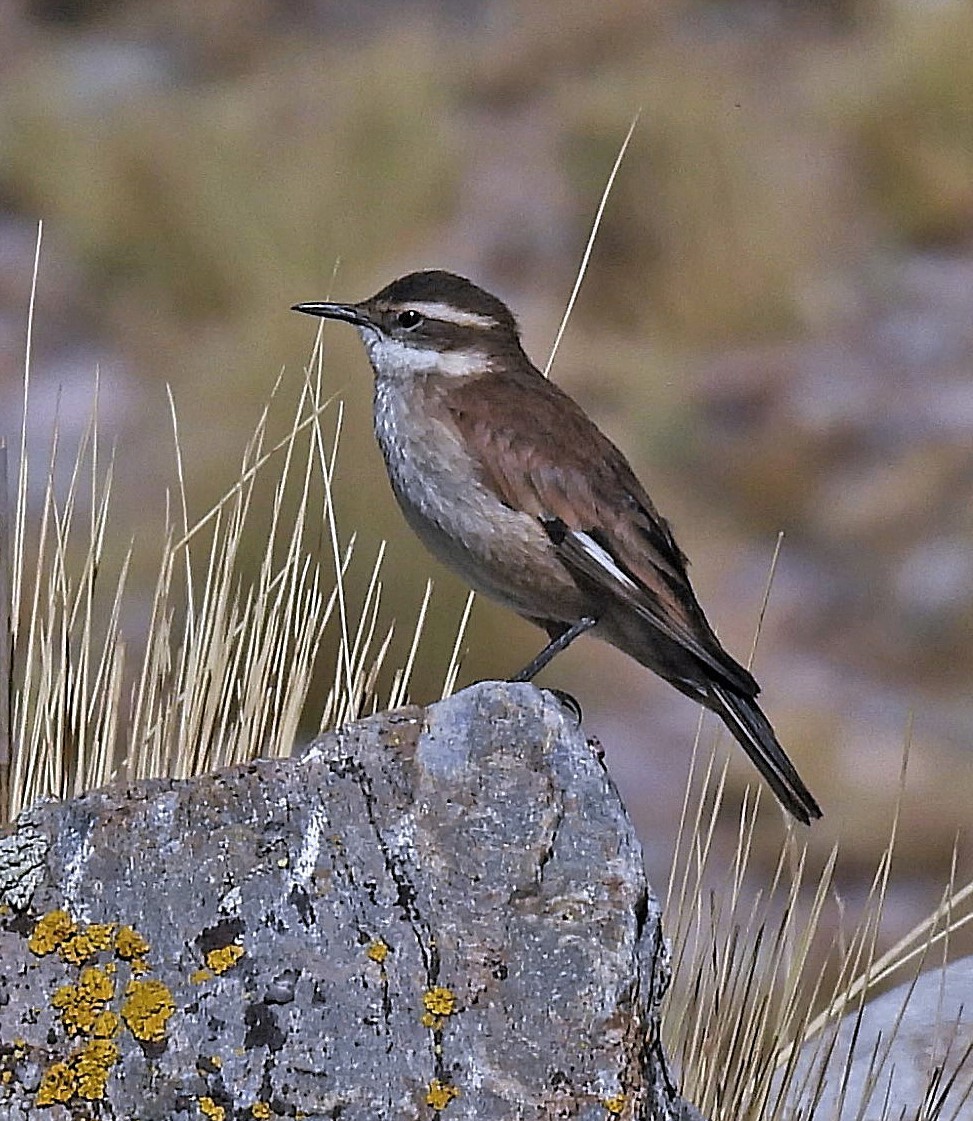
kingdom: Animalia
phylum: Chordata
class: Aves
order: Passeriformes
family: Furnariidae
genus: Cinclodes
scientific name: Cinclodes fuscus
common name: Buff-winged cinclodes
